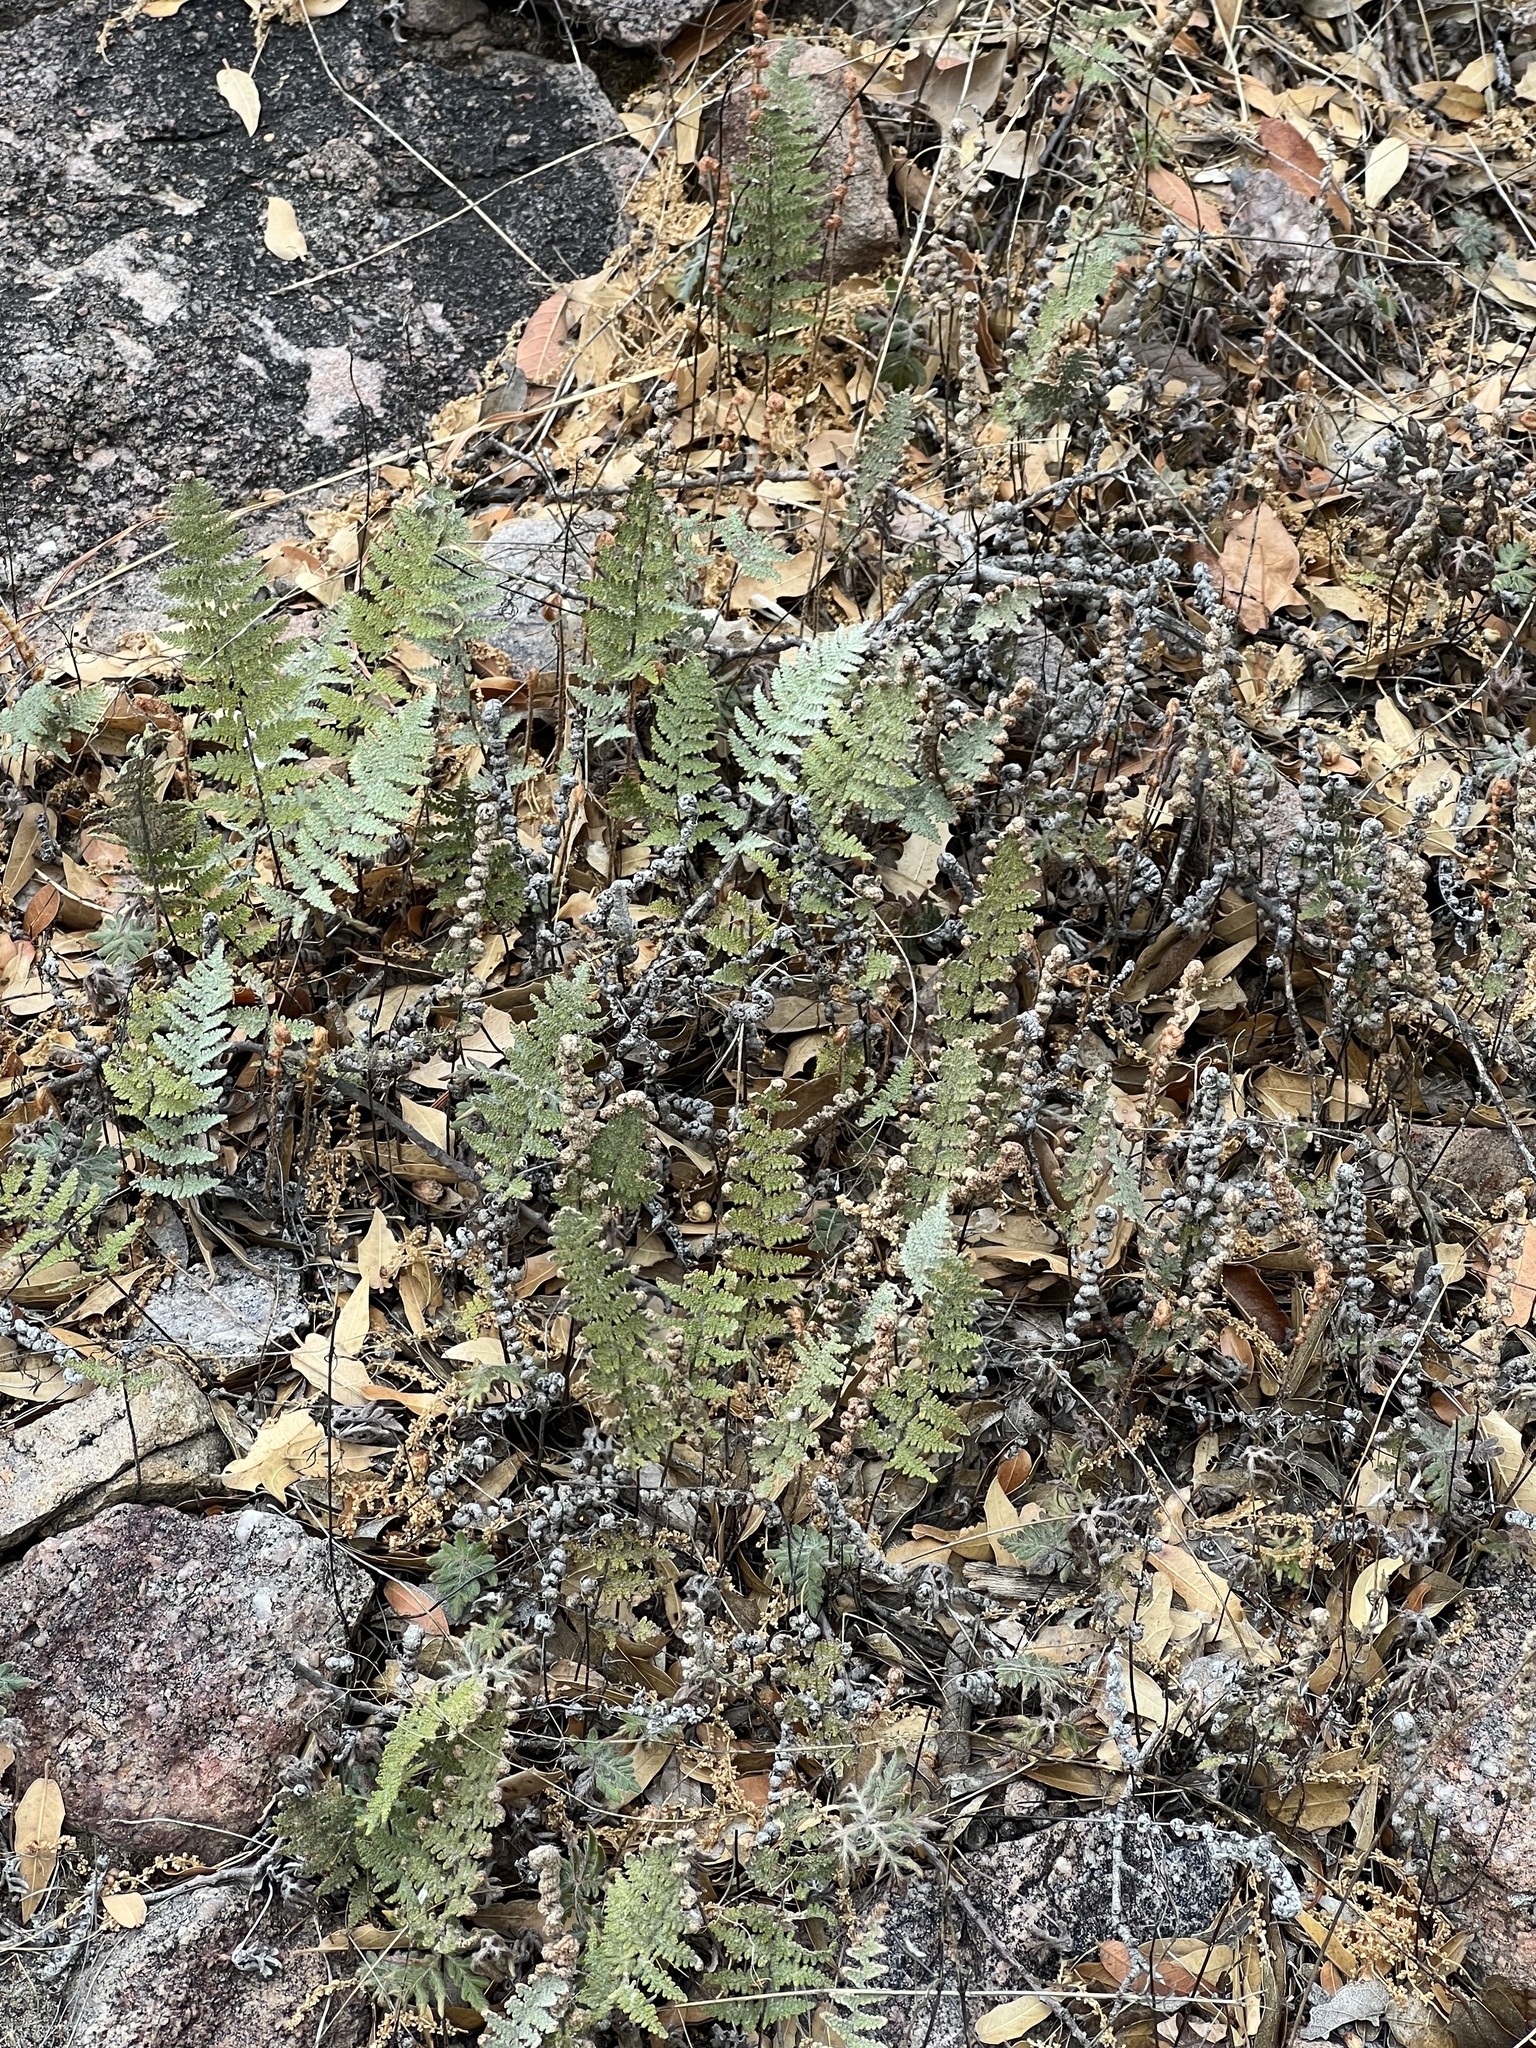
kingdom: Plantae
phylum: Tracheophyta
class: Polypodiopsida
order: Polypodiales
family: Pteridaceae
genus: Myriopteris
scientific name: Myriopteris lindheimeri
